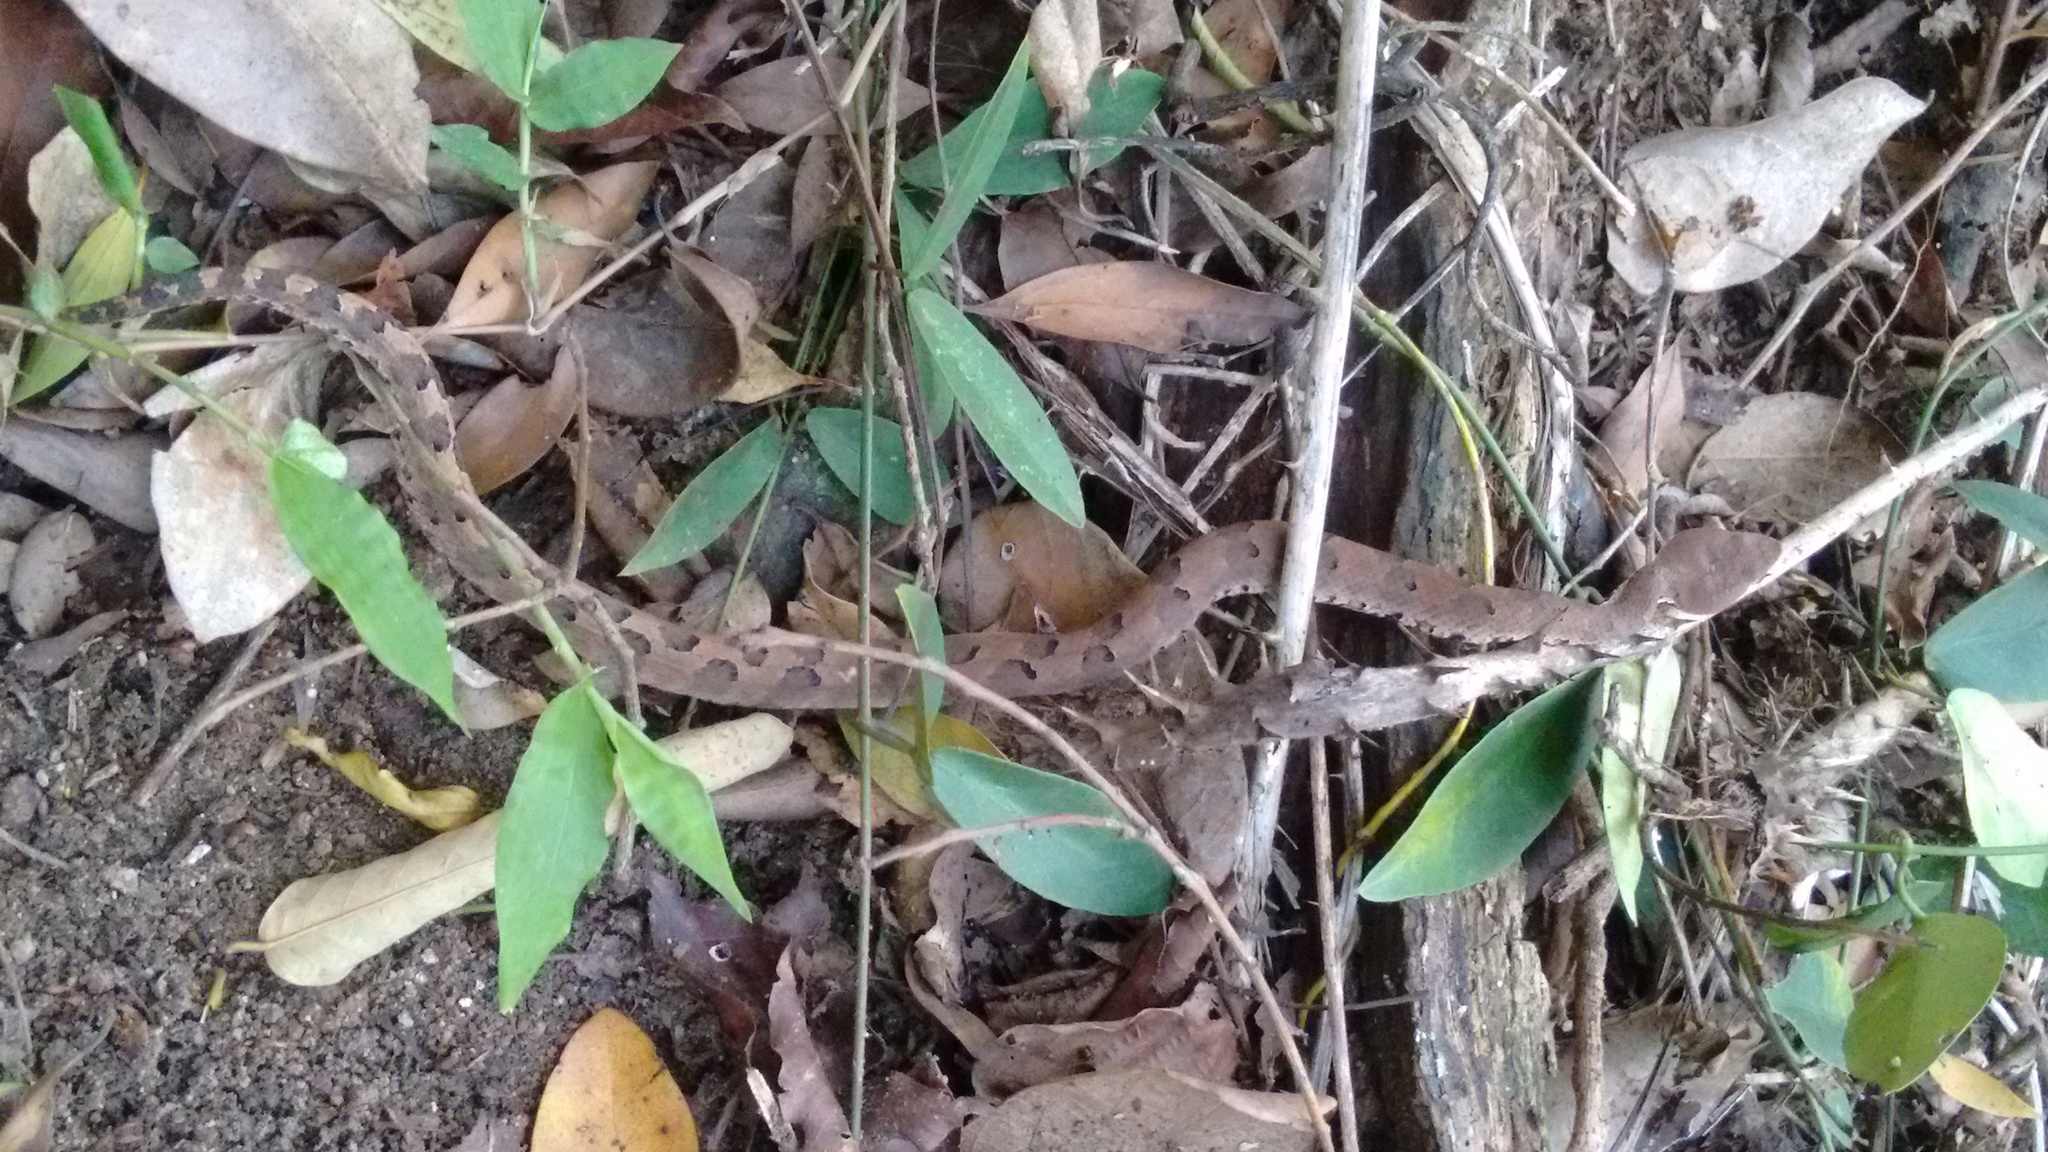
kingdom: Animalia
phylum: Chordata
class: Squamata
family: Viperidae
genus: Hypnale
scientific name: Hypnale hypnale
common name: Hump-nosed moccasin
